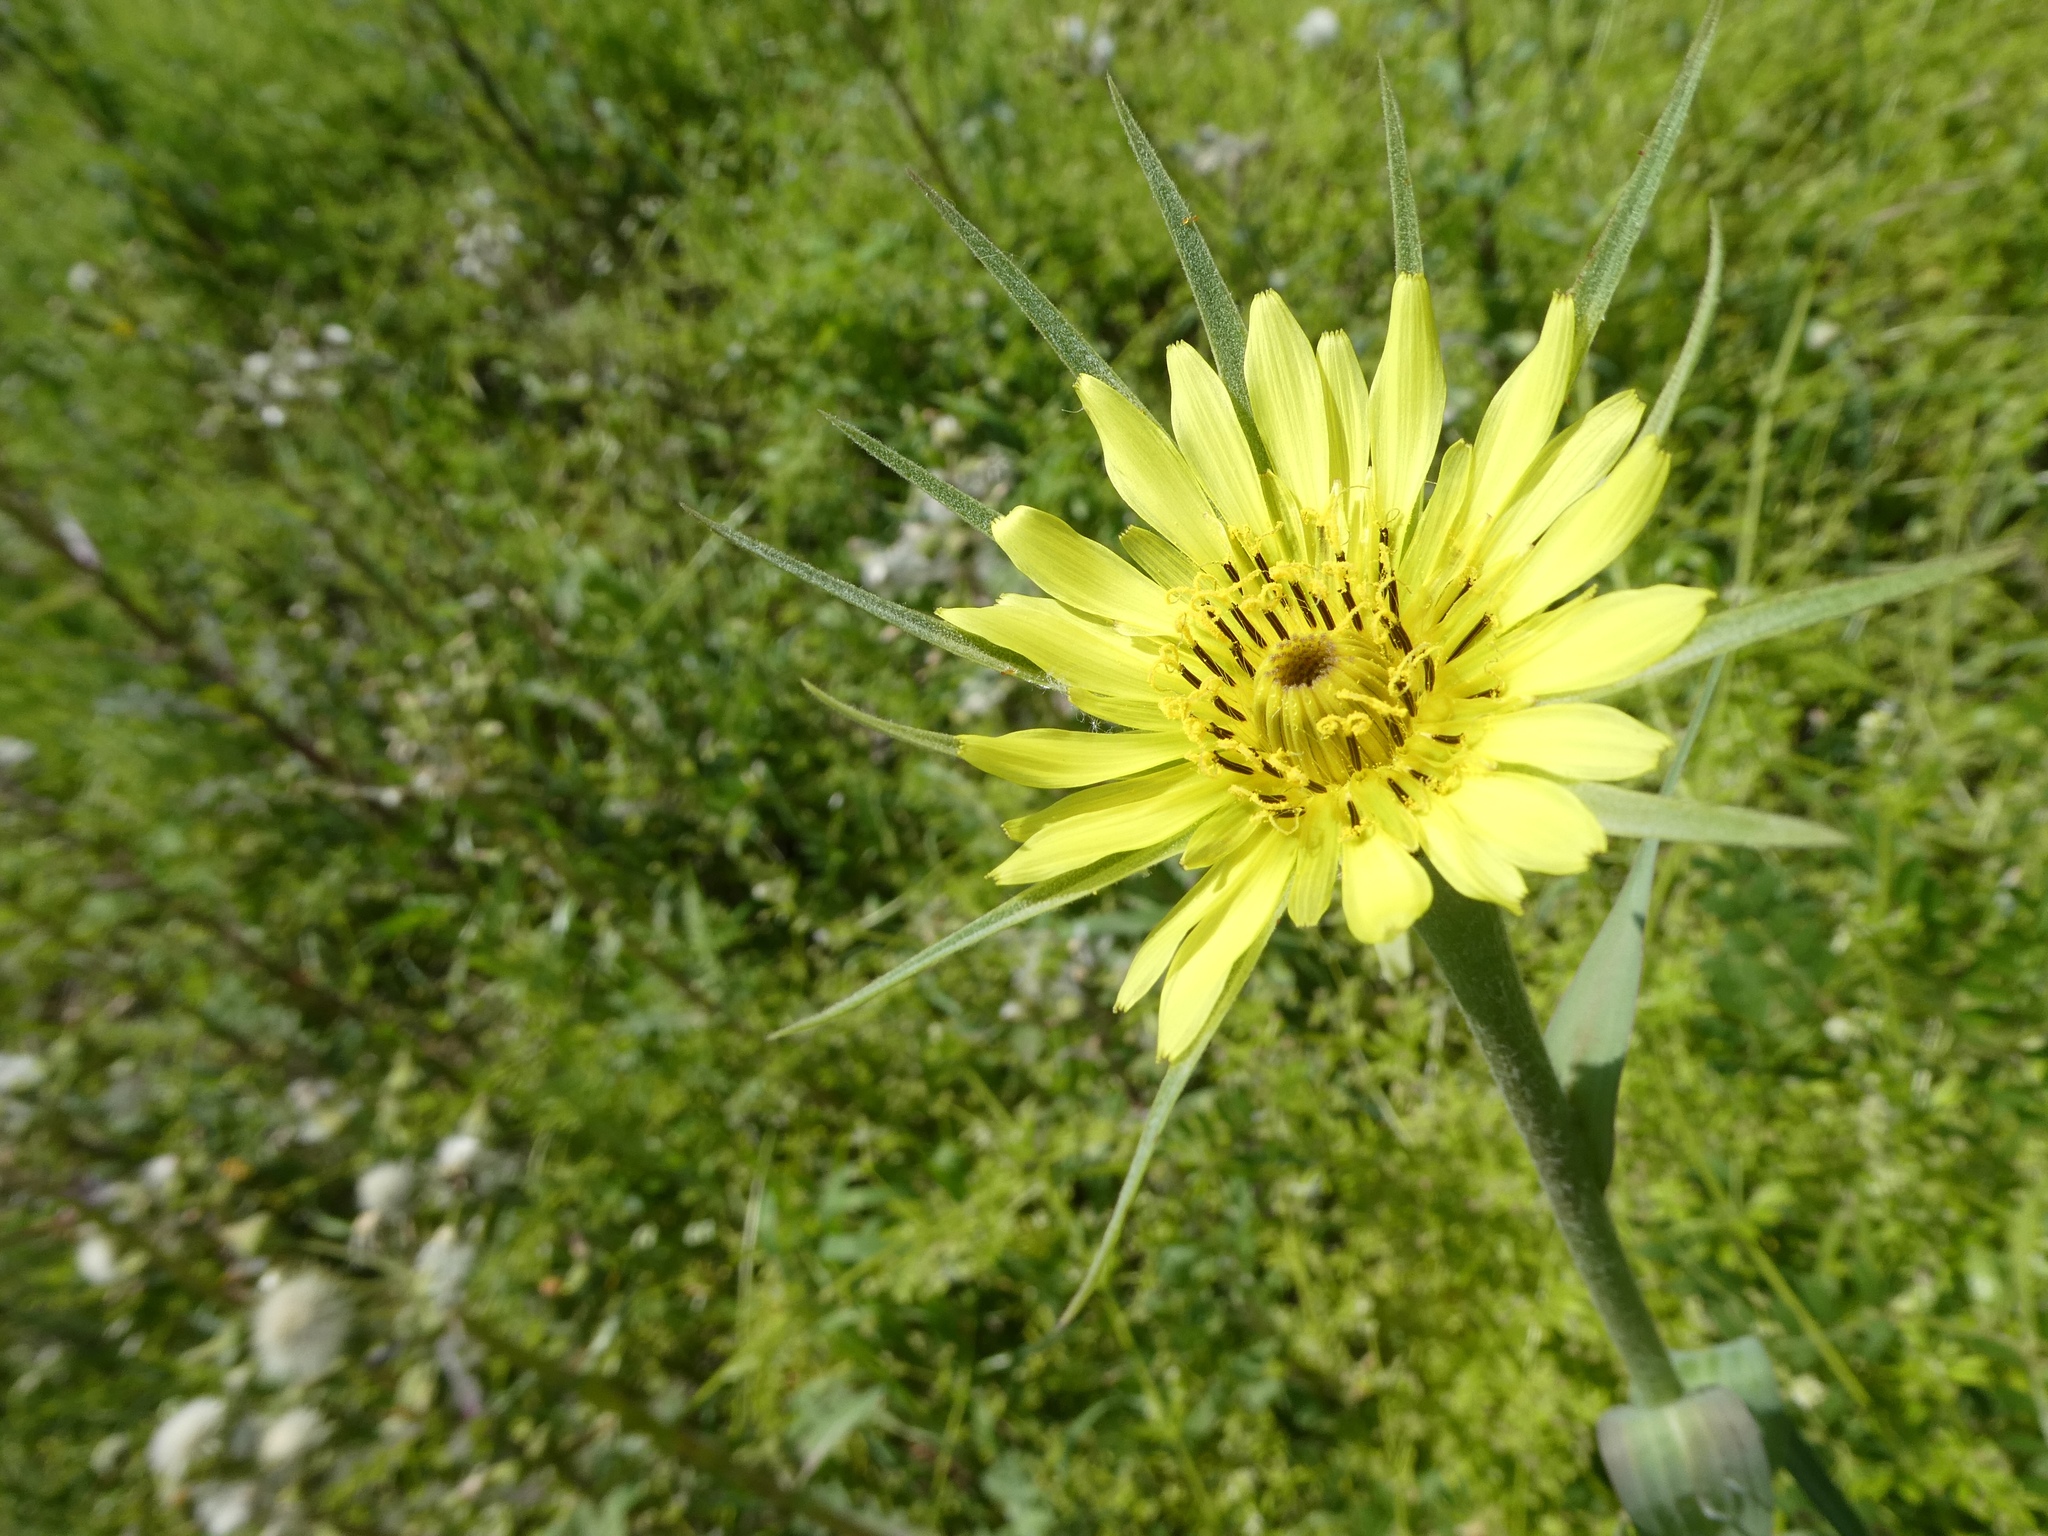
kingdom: Plantae
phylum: Tracheophyta
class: Magnoliopsida
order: Asterales
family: Asteraceae
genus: Tragopogon
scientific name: Tragopogon dubius
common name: Yellow salsify
